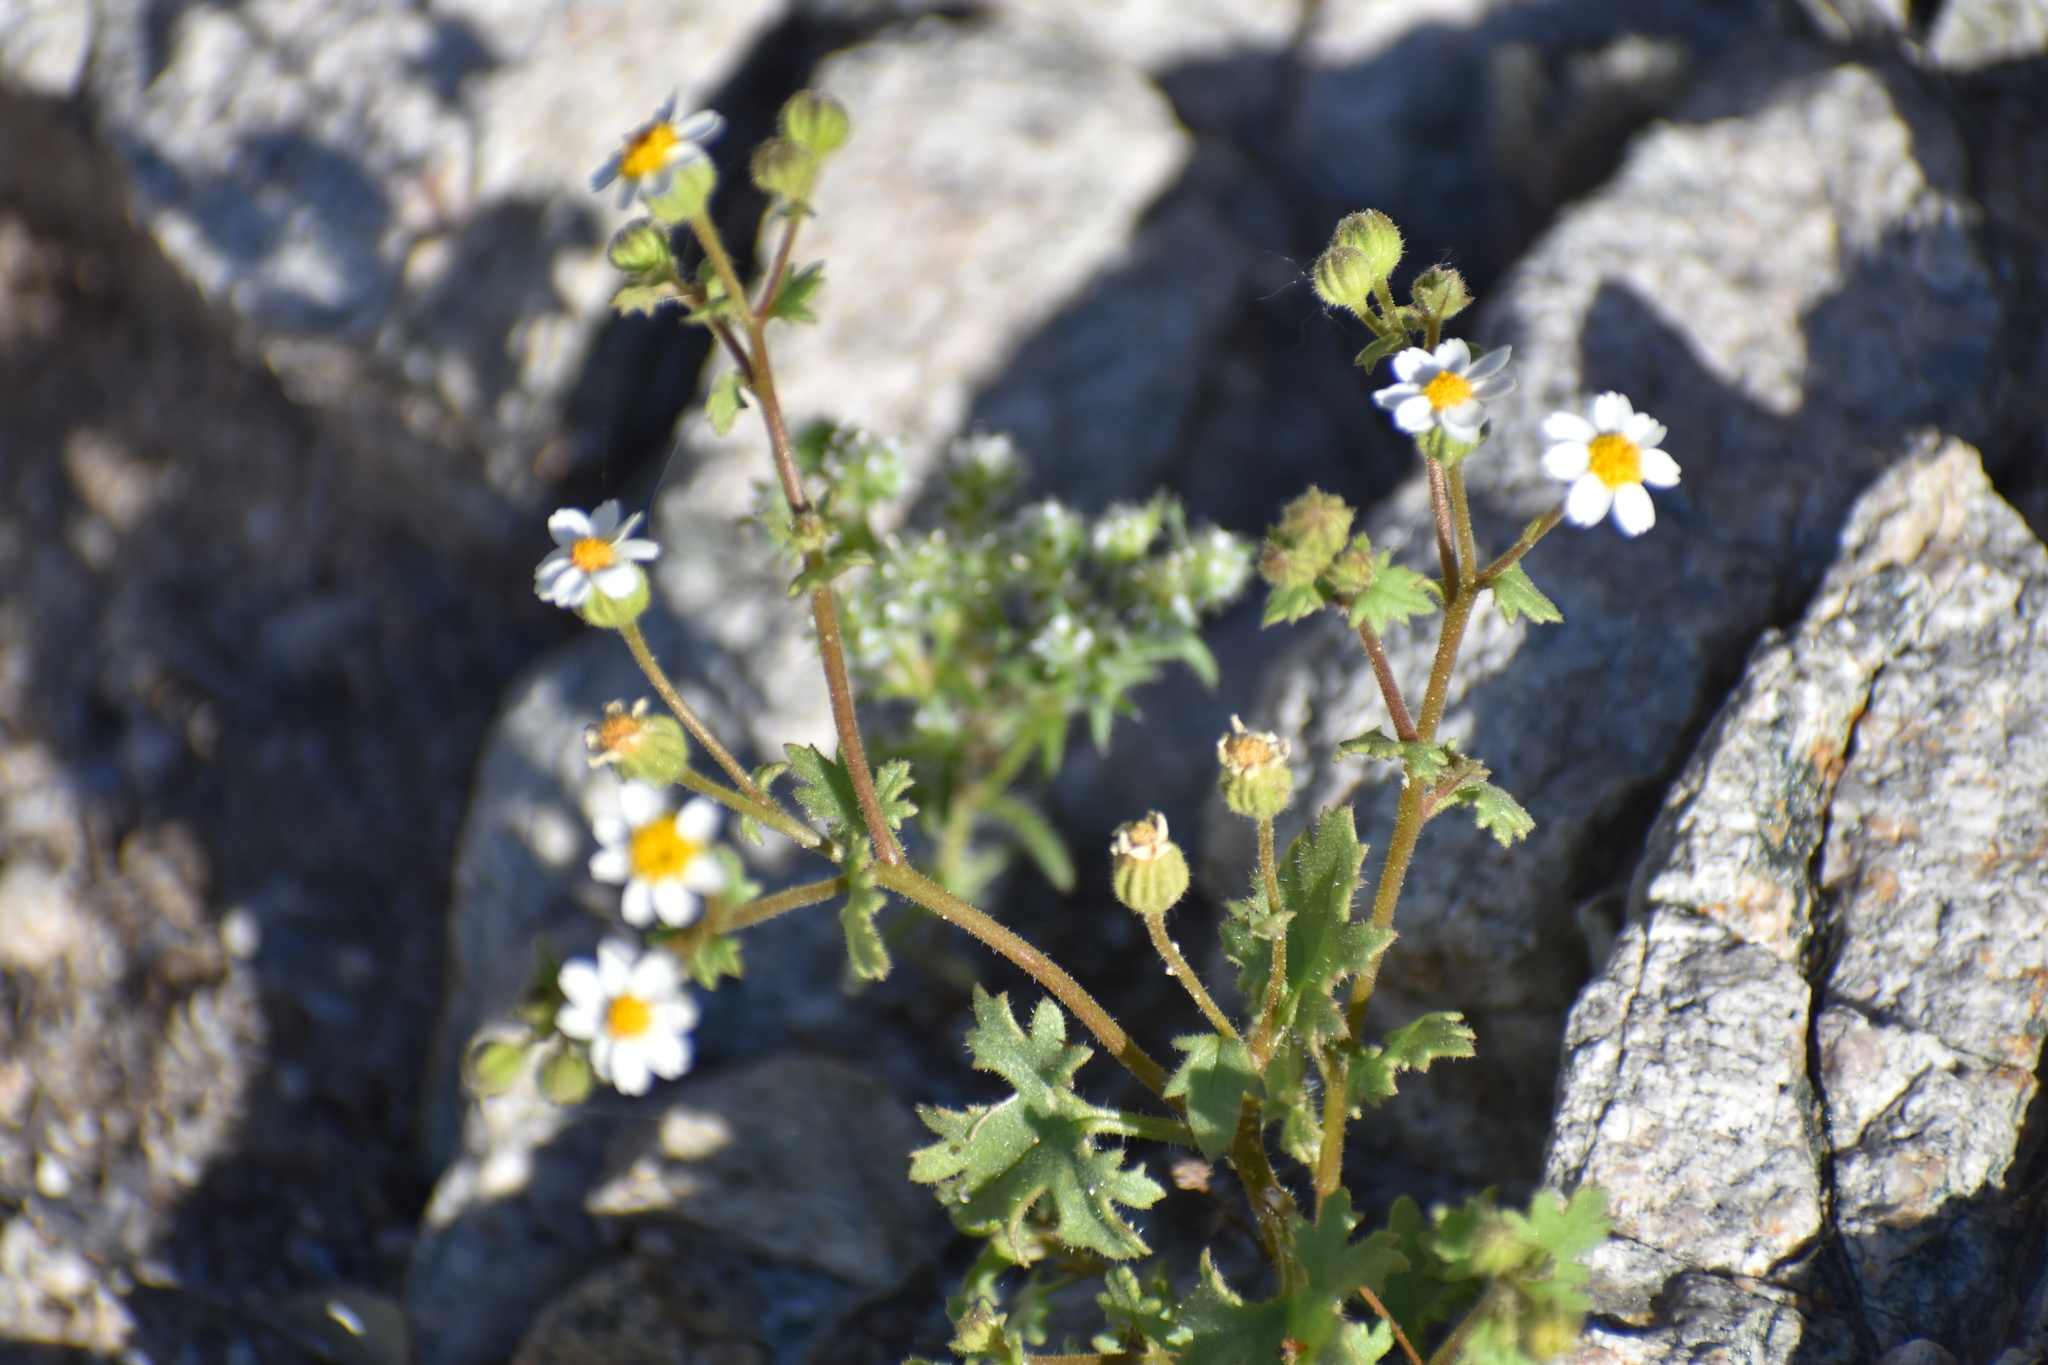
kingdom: Plantae
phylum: Tracheophyta
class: Magnoliopsida
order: Asterales
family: Asteraceae
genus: Laphamia
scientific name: Laphamia emoryi
